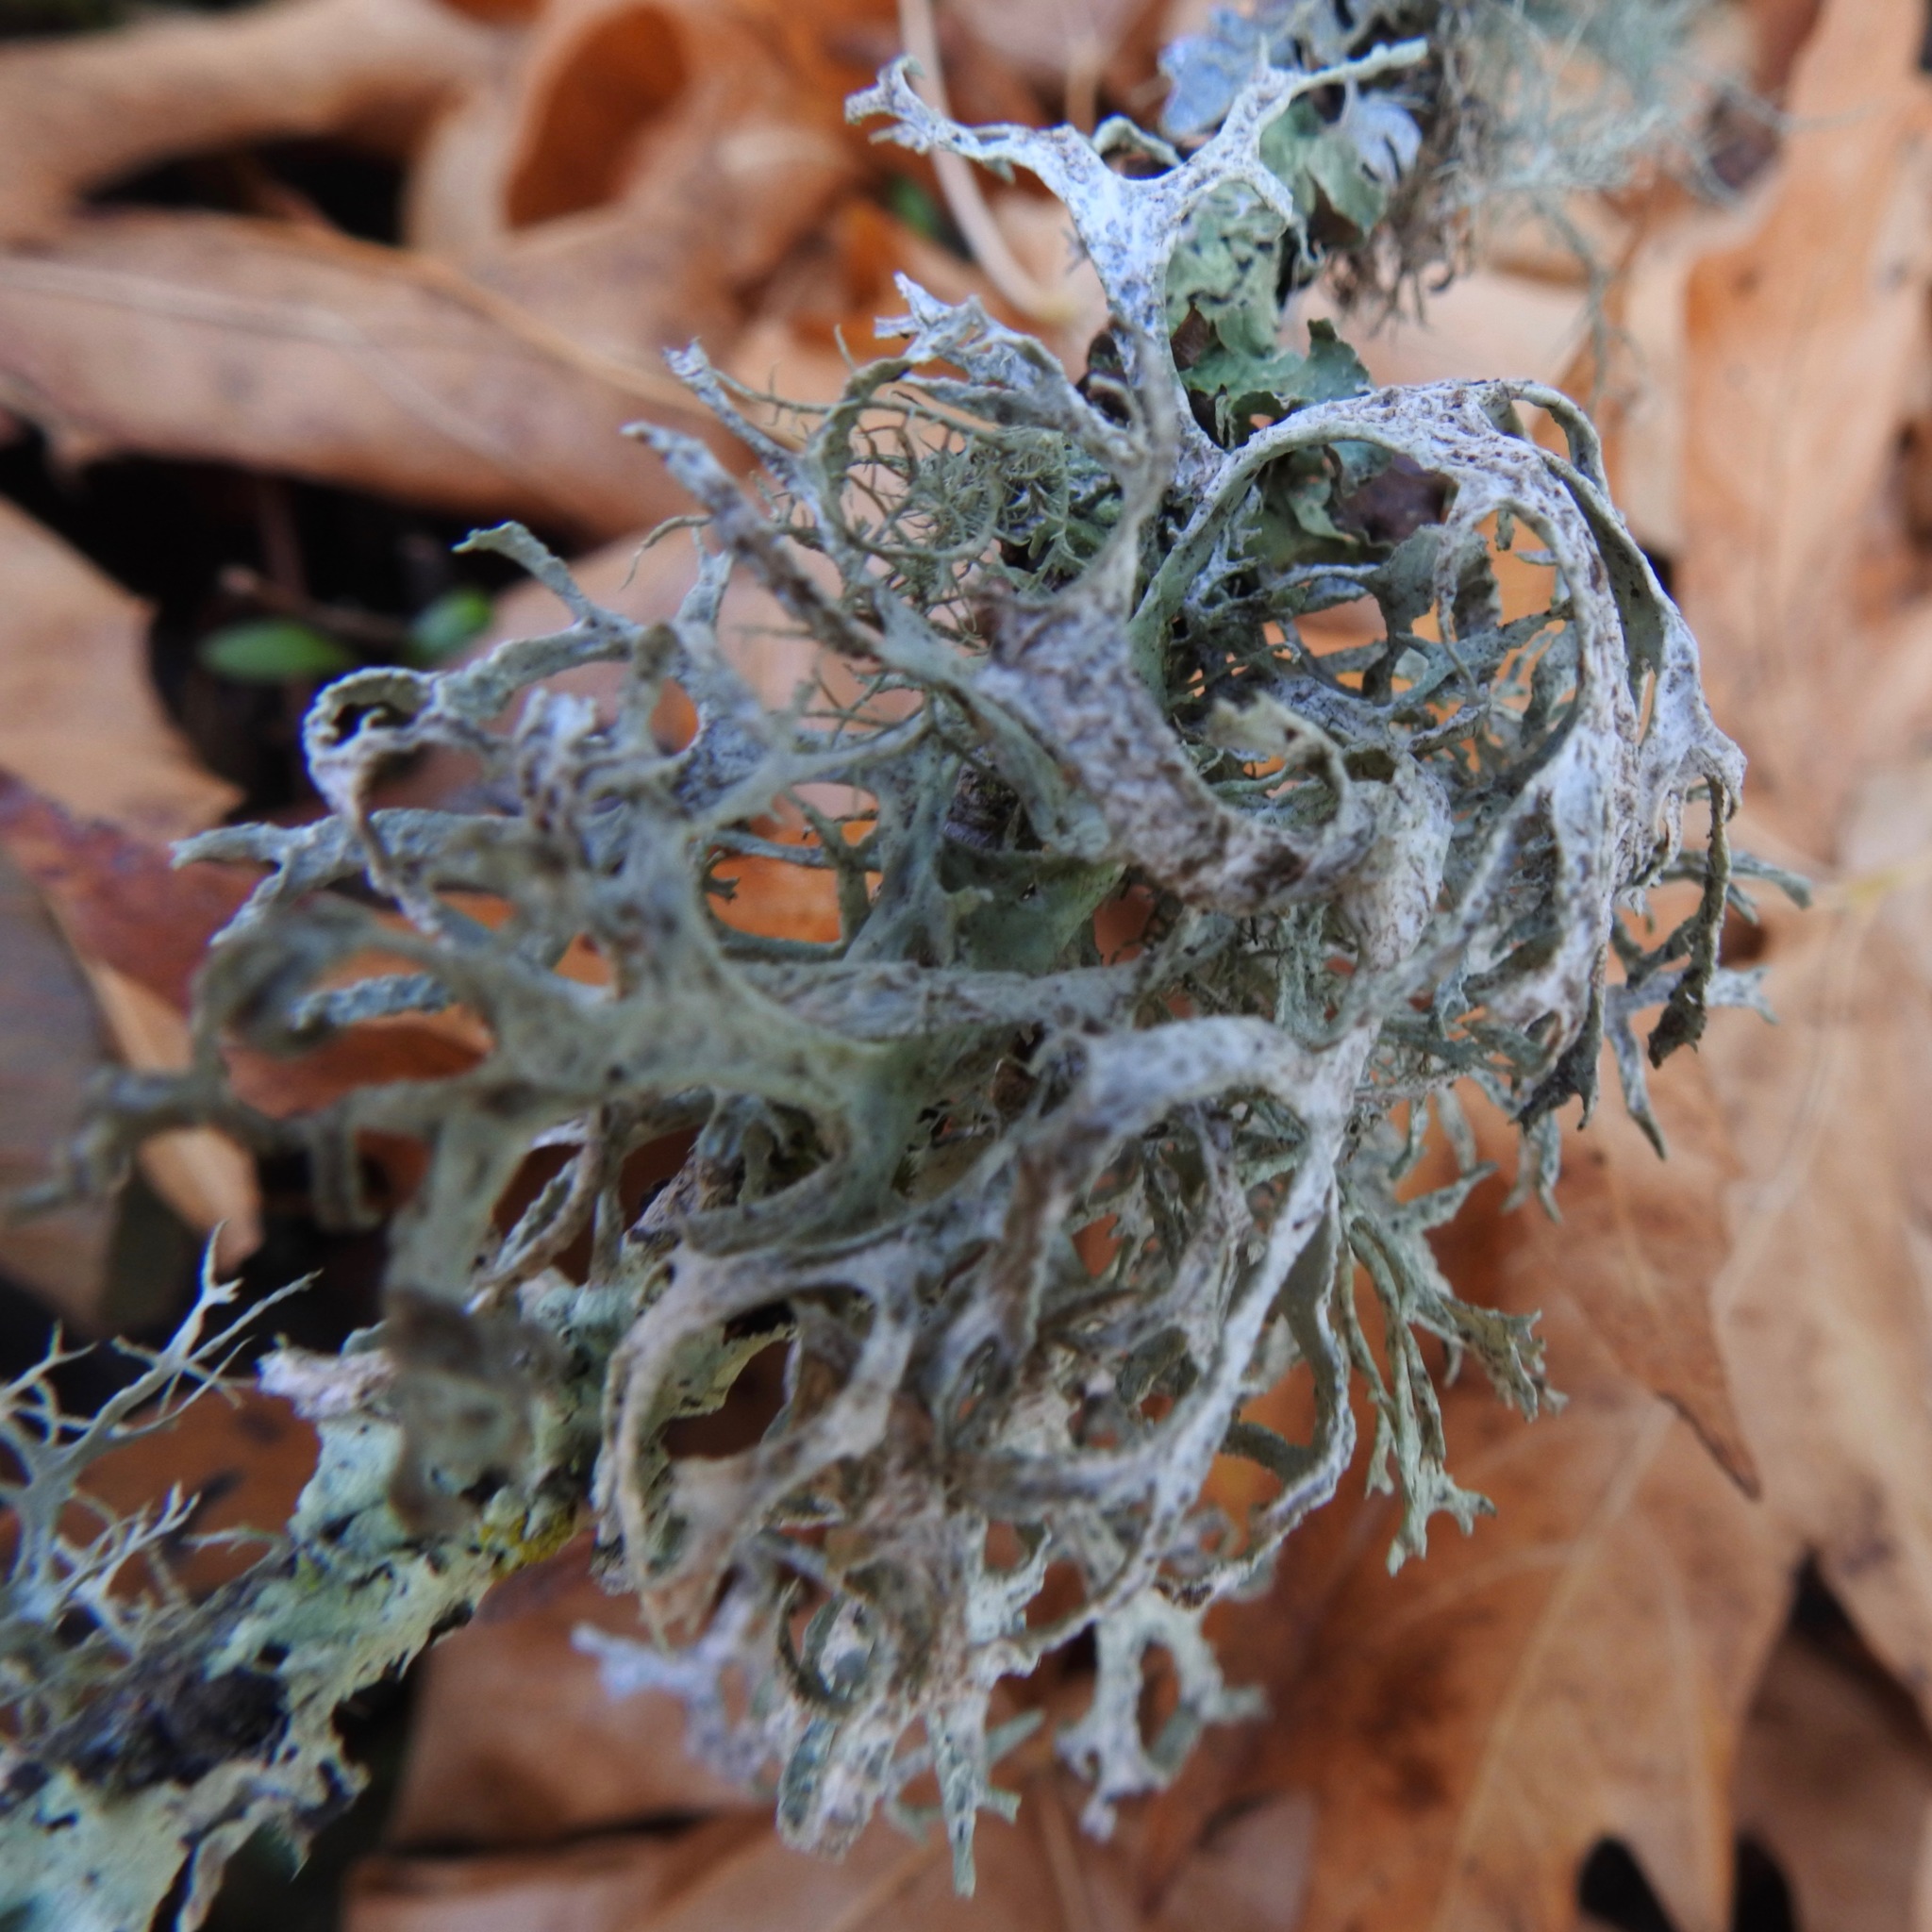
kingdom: Fungi
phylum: Ascomycota
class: Lecanoromycetes
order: Lecanorales
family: Parmeliaceae
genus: Evernia
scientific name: Evernia prunastri
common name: Oak moss
